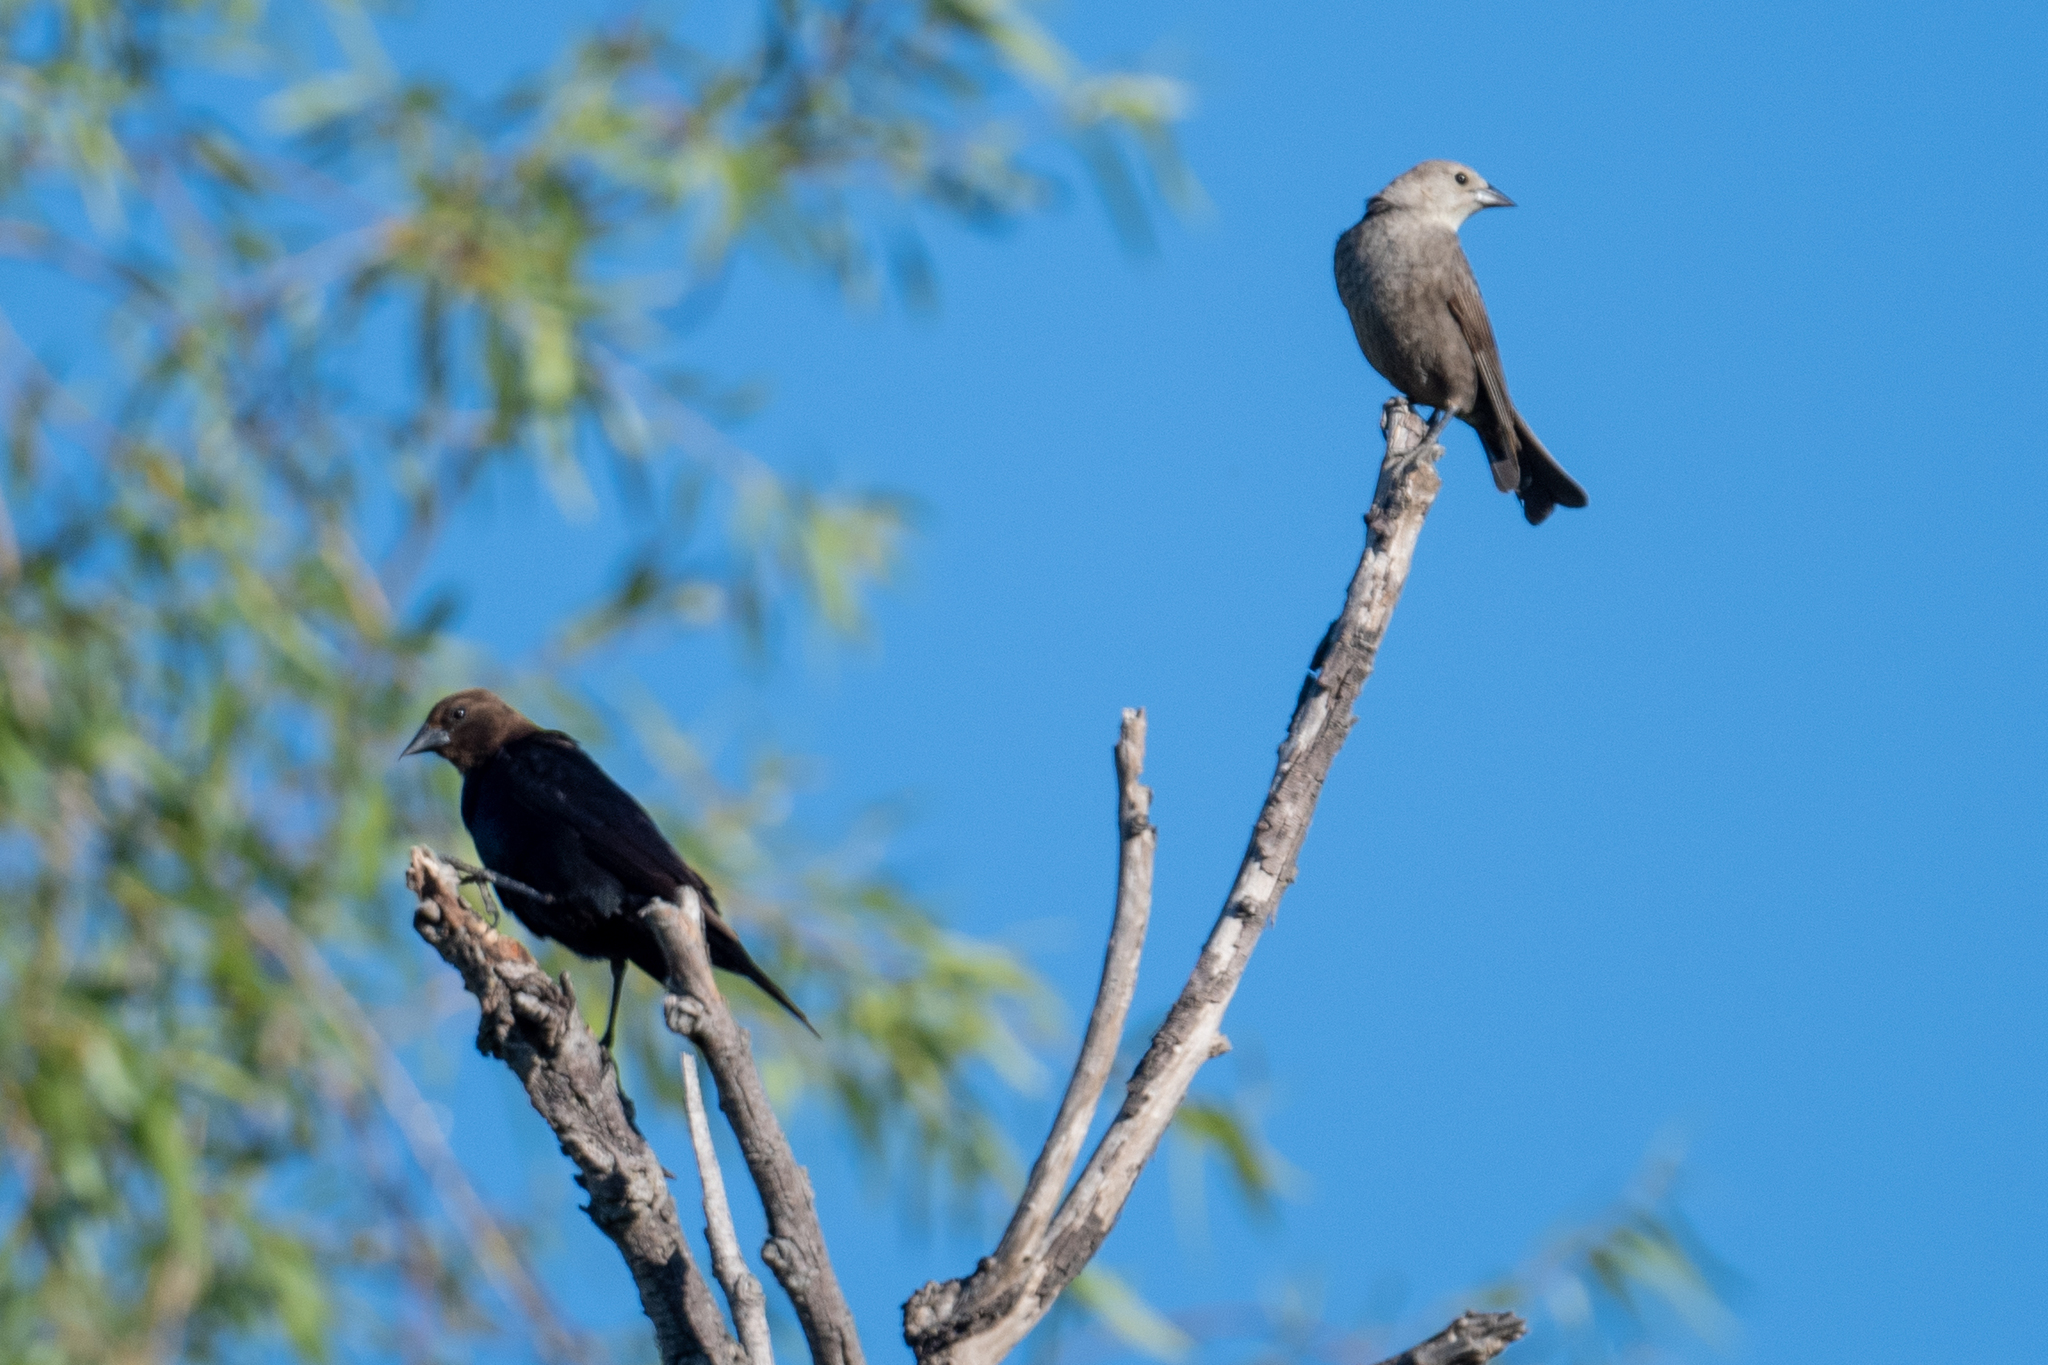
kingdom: Animalia
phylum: Chordata
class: Aves
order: Passeriformes
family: Icteridae
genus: Molothrus
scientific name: Molothrus ater
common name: Brown-headed cowbird
